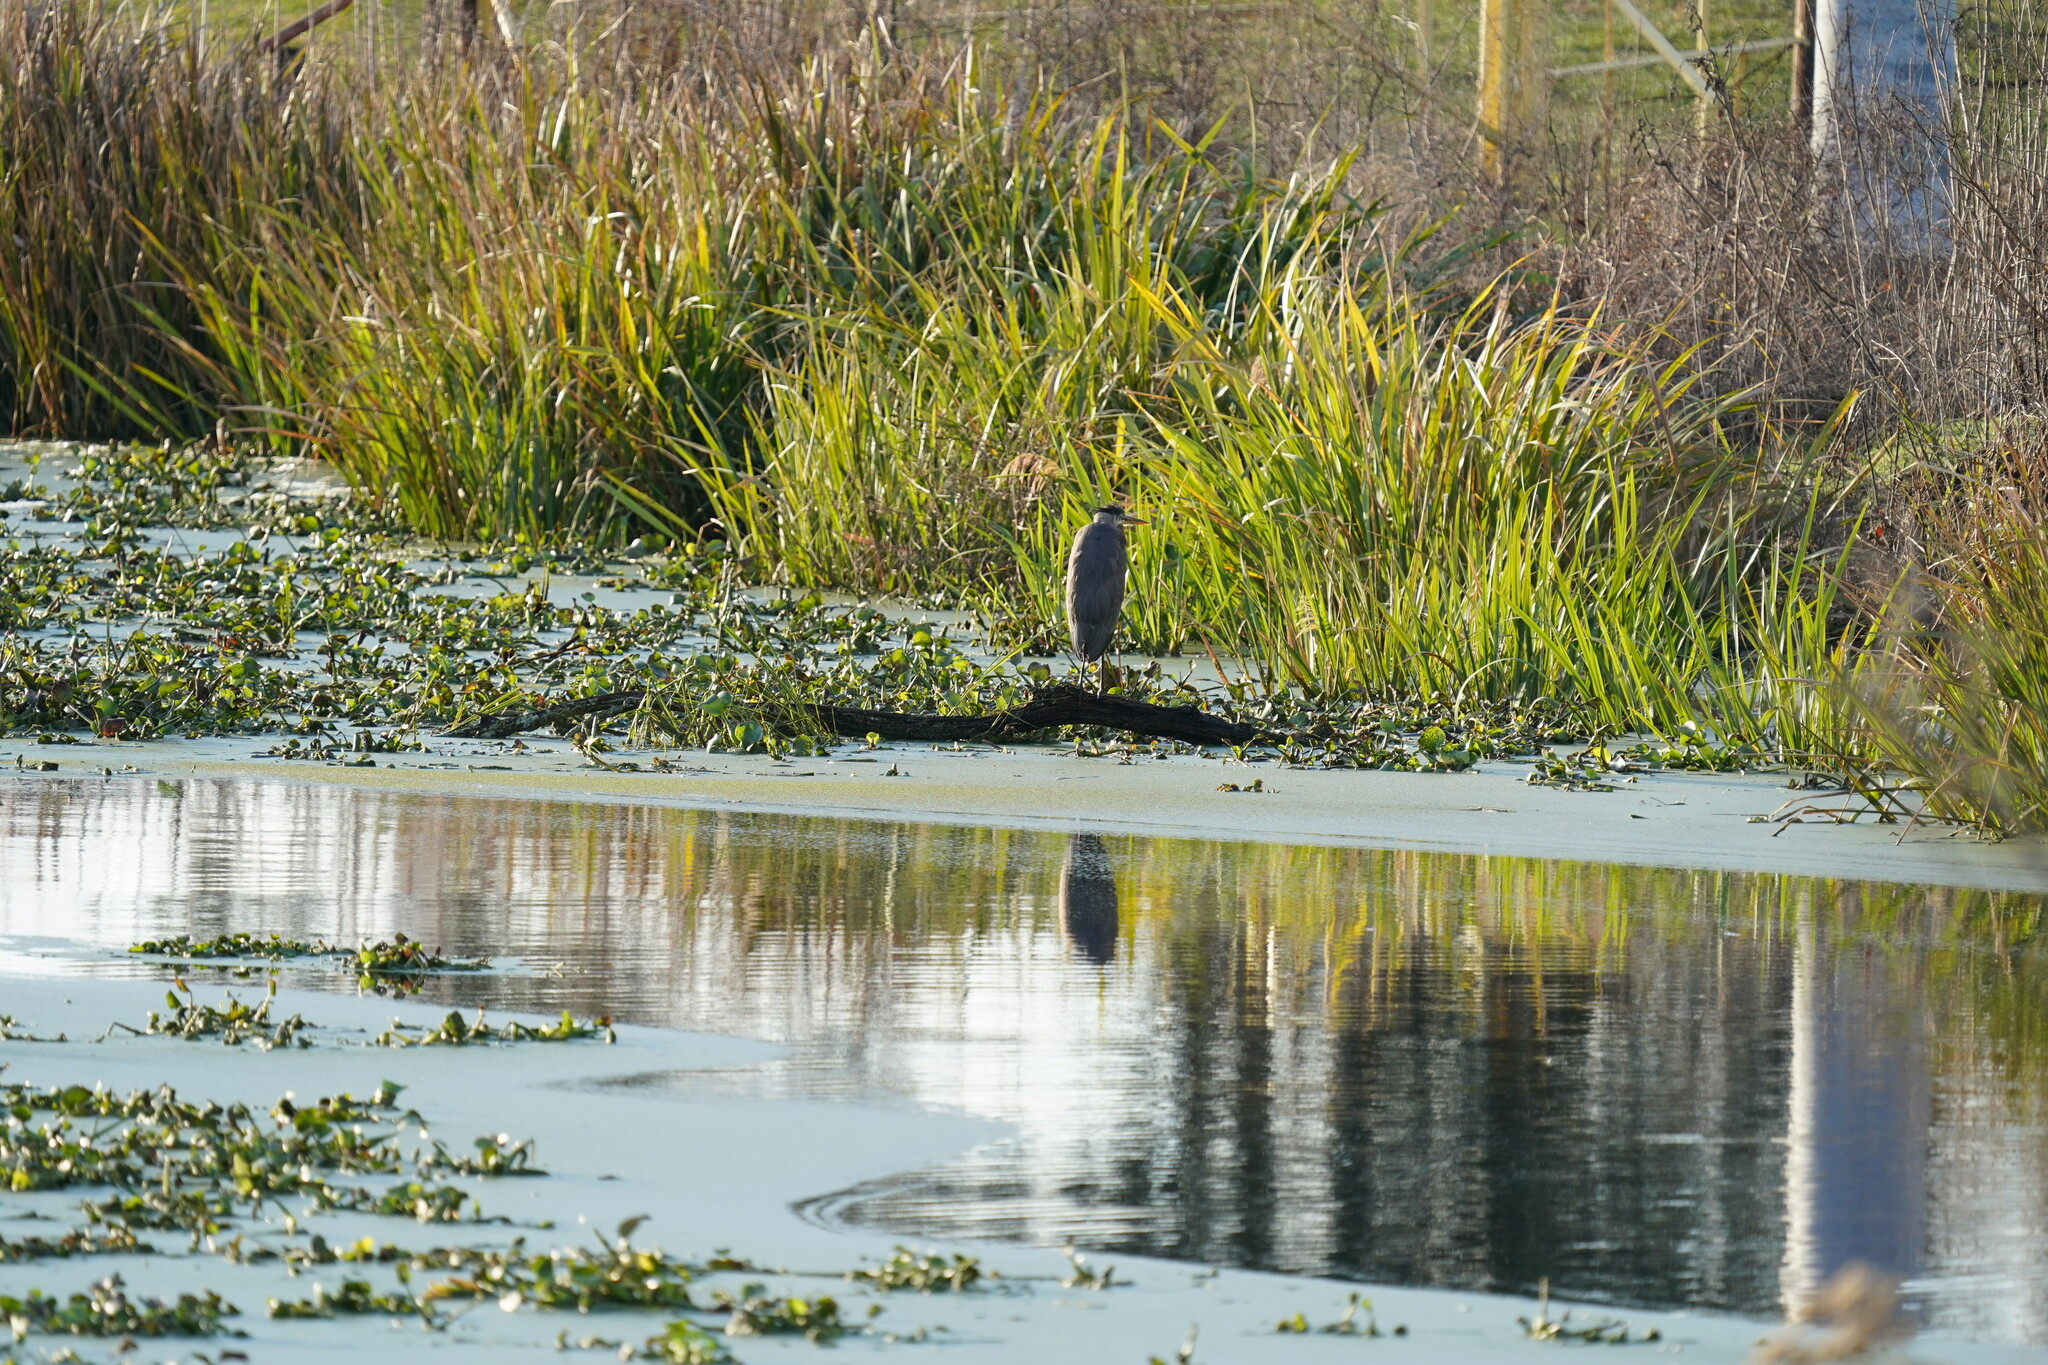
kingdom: Animalia
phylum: Chordata
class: Aves
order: Pelecaniformes
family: Ardeidae
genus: Ardea
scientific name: Ardea herodias
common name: Great blue heron
